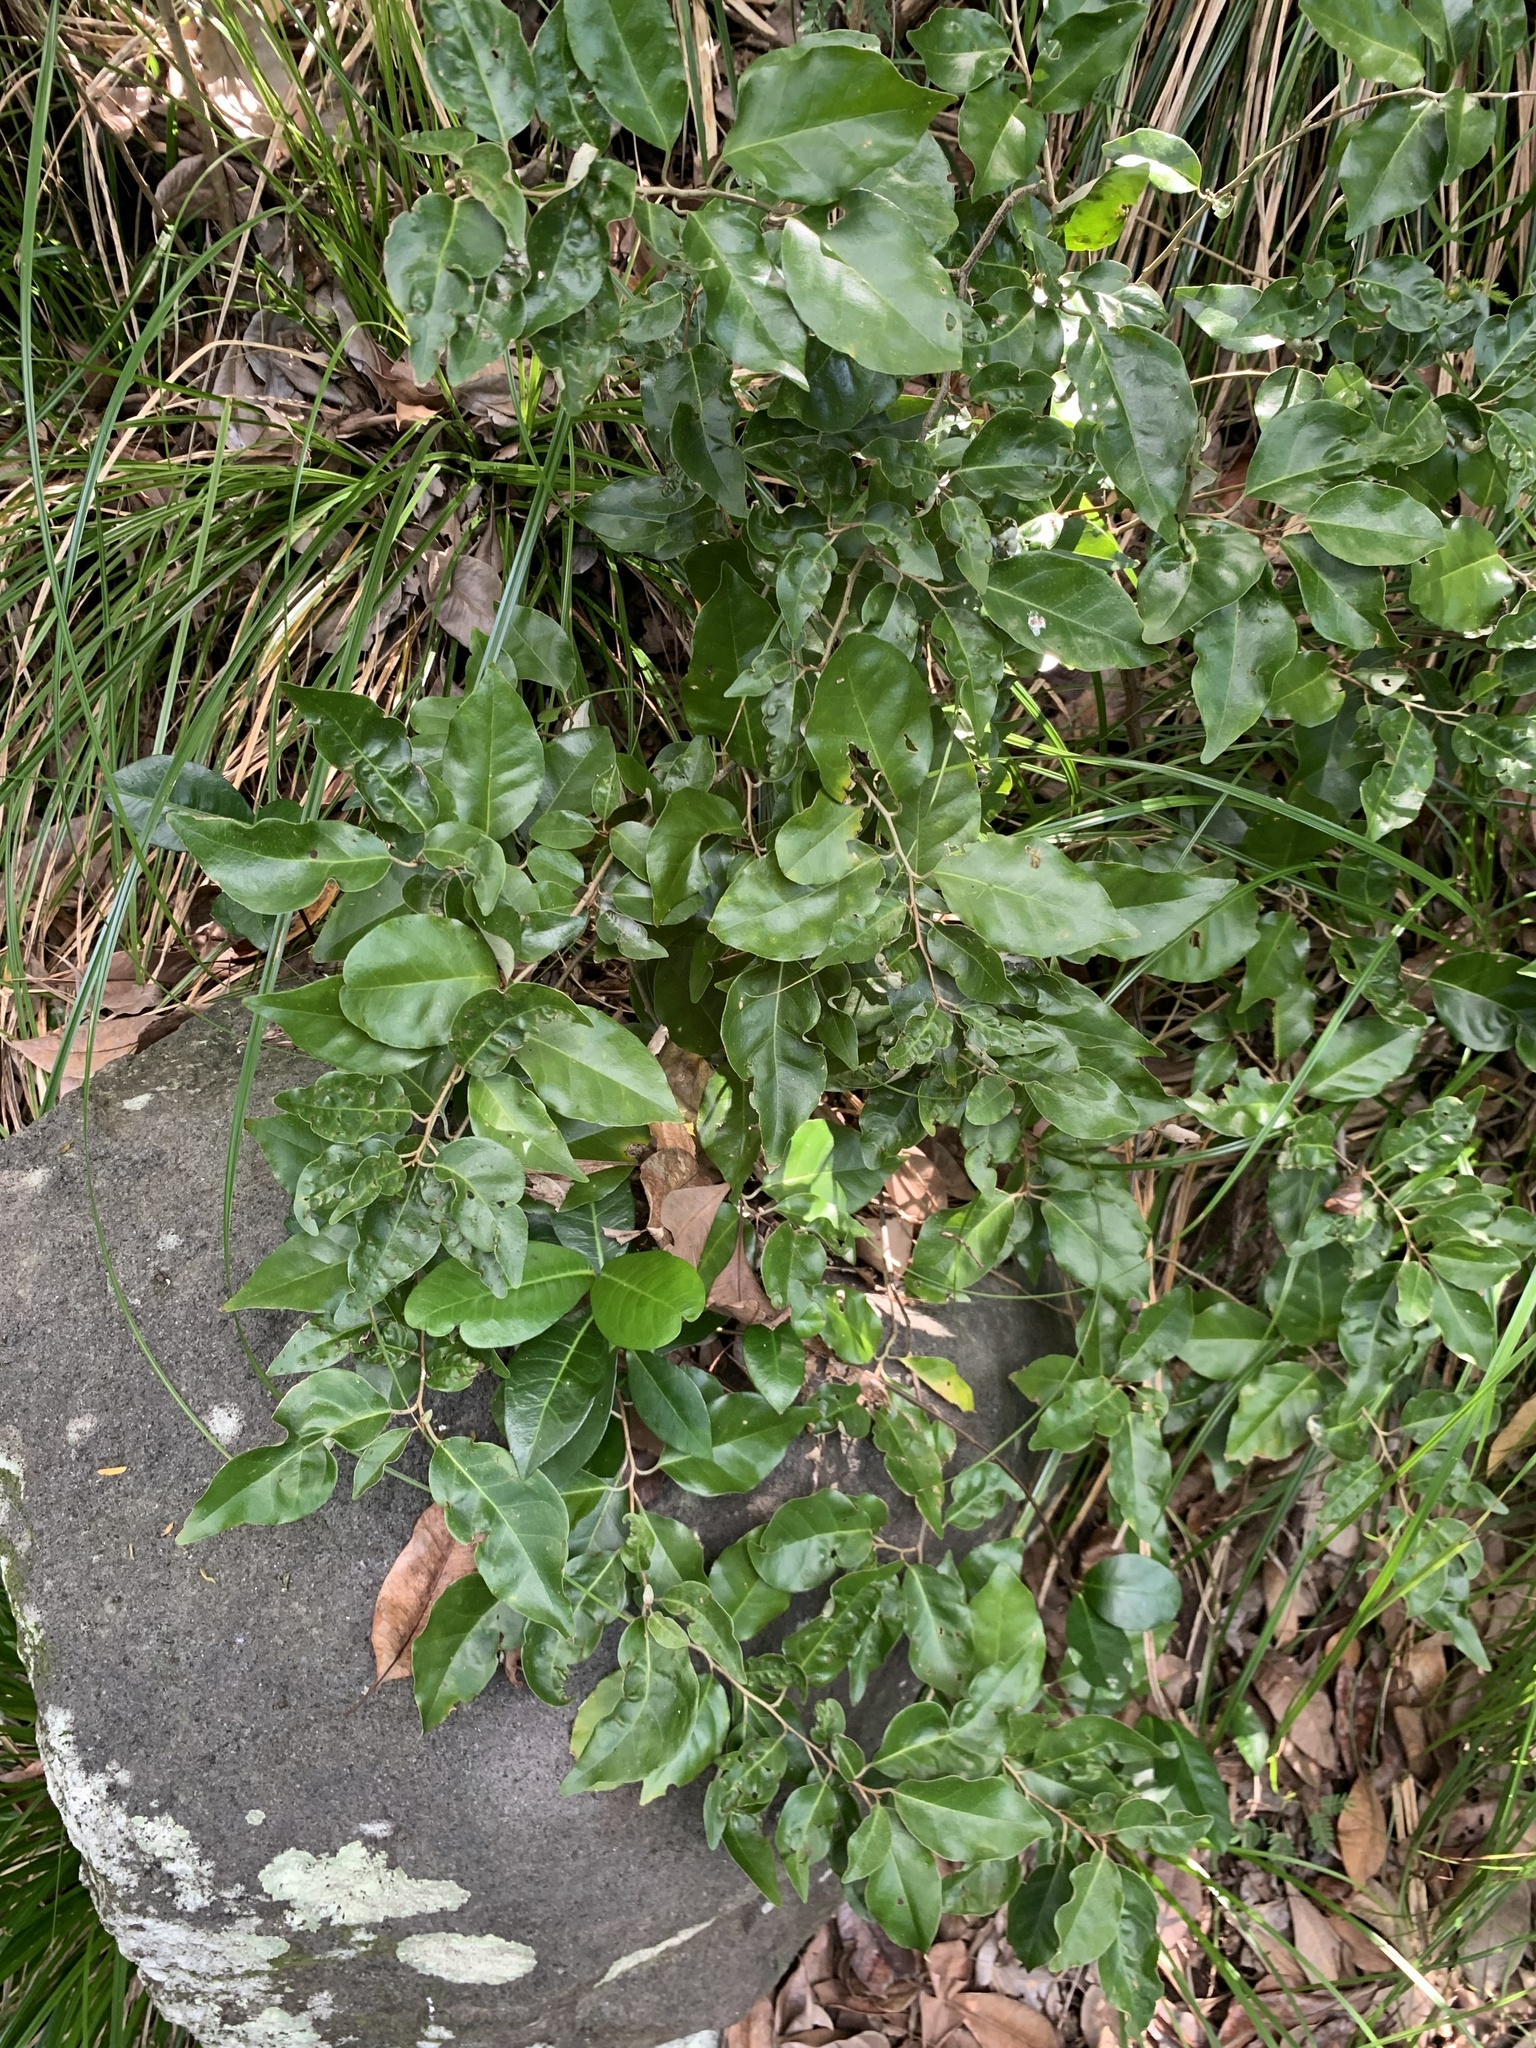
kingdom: Plantae
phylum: Tracheophyta
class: Magnoliopsida
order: Rosales
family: Elaeagnaceae
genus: Elaeagnus
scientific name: Elaeagnus rotundata
